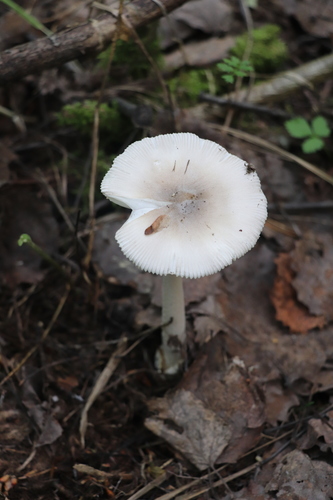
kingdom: Fungi
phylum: Basidiomycota
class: Agaricomycetes
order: Agaricales
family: Amanitaceae
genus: Amanita
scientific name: Amanita
